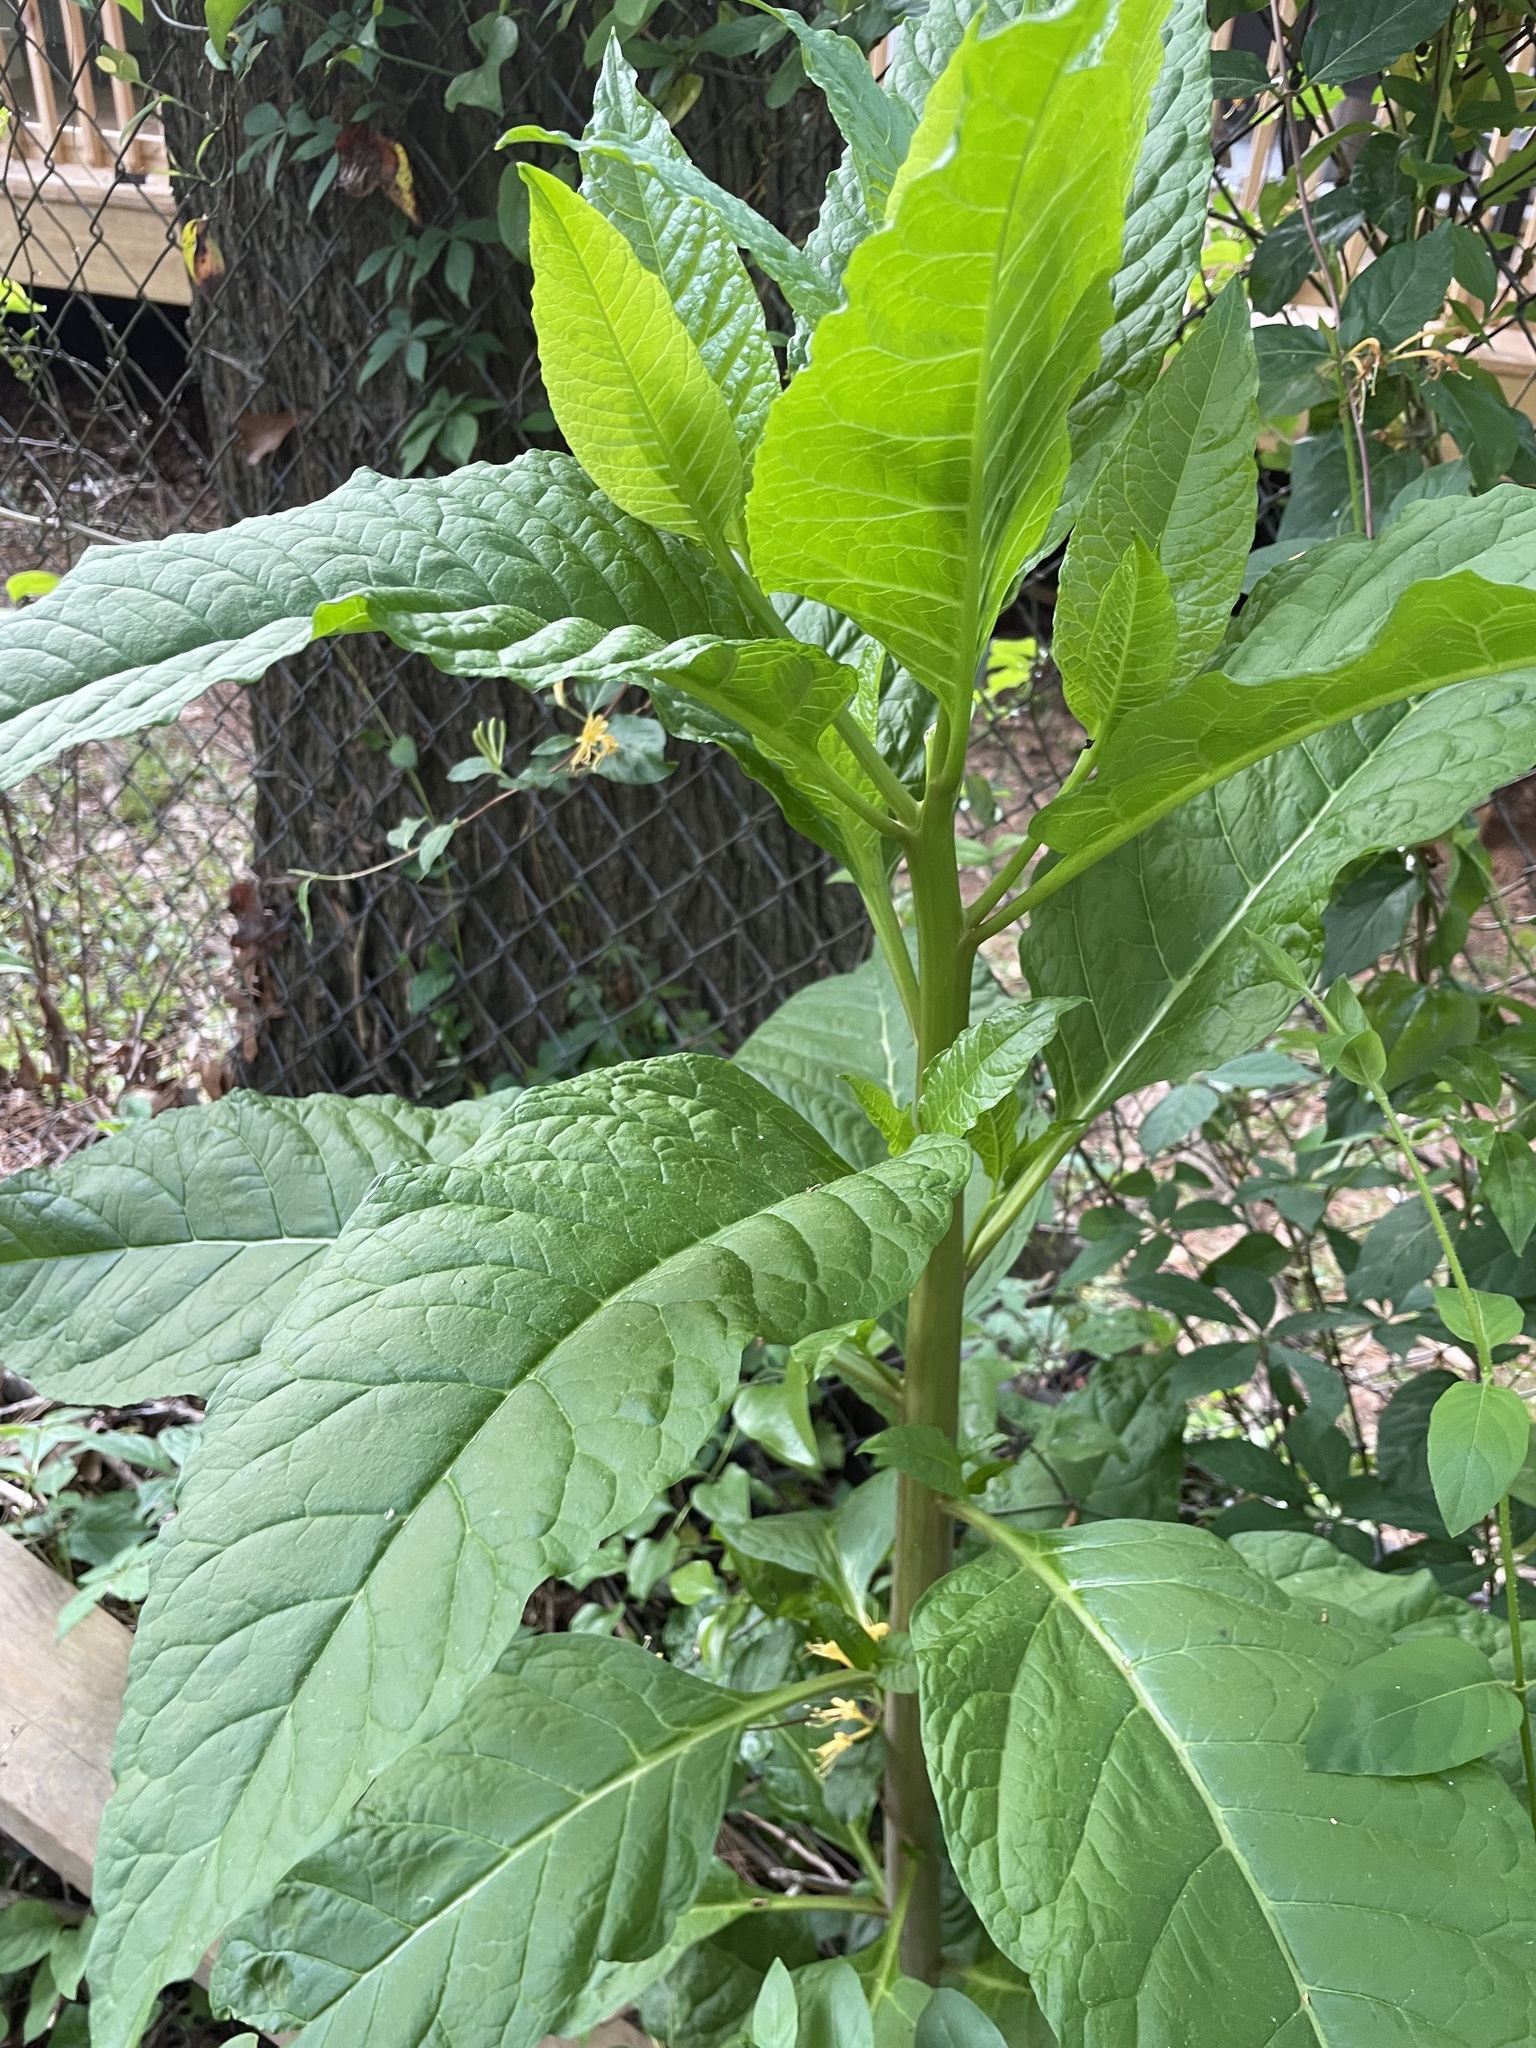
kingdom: Plantae
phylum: Tracheophyta
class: Magnoliopsida
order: Caryophyllales
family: Phytolaccaceae
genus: Phytolacca
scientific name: Phytolacca americana
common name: American pokeweed
